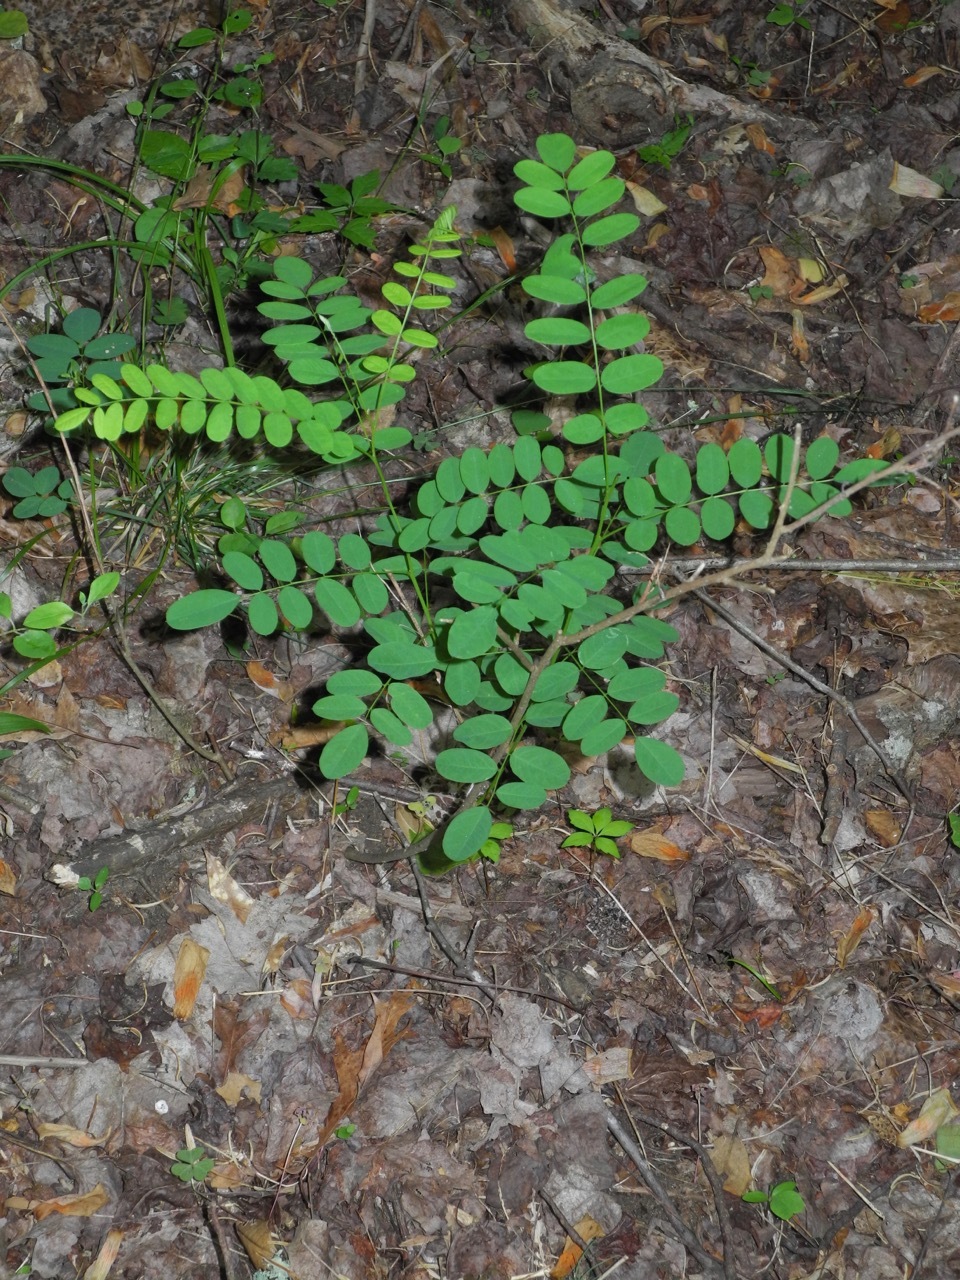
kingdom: Plantae
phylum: Tracheophyta
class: Magnoliopsida
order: Fabales
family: Fabaceae
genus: Robinia
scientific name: Robinia pseudoacacia
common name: Black locust
